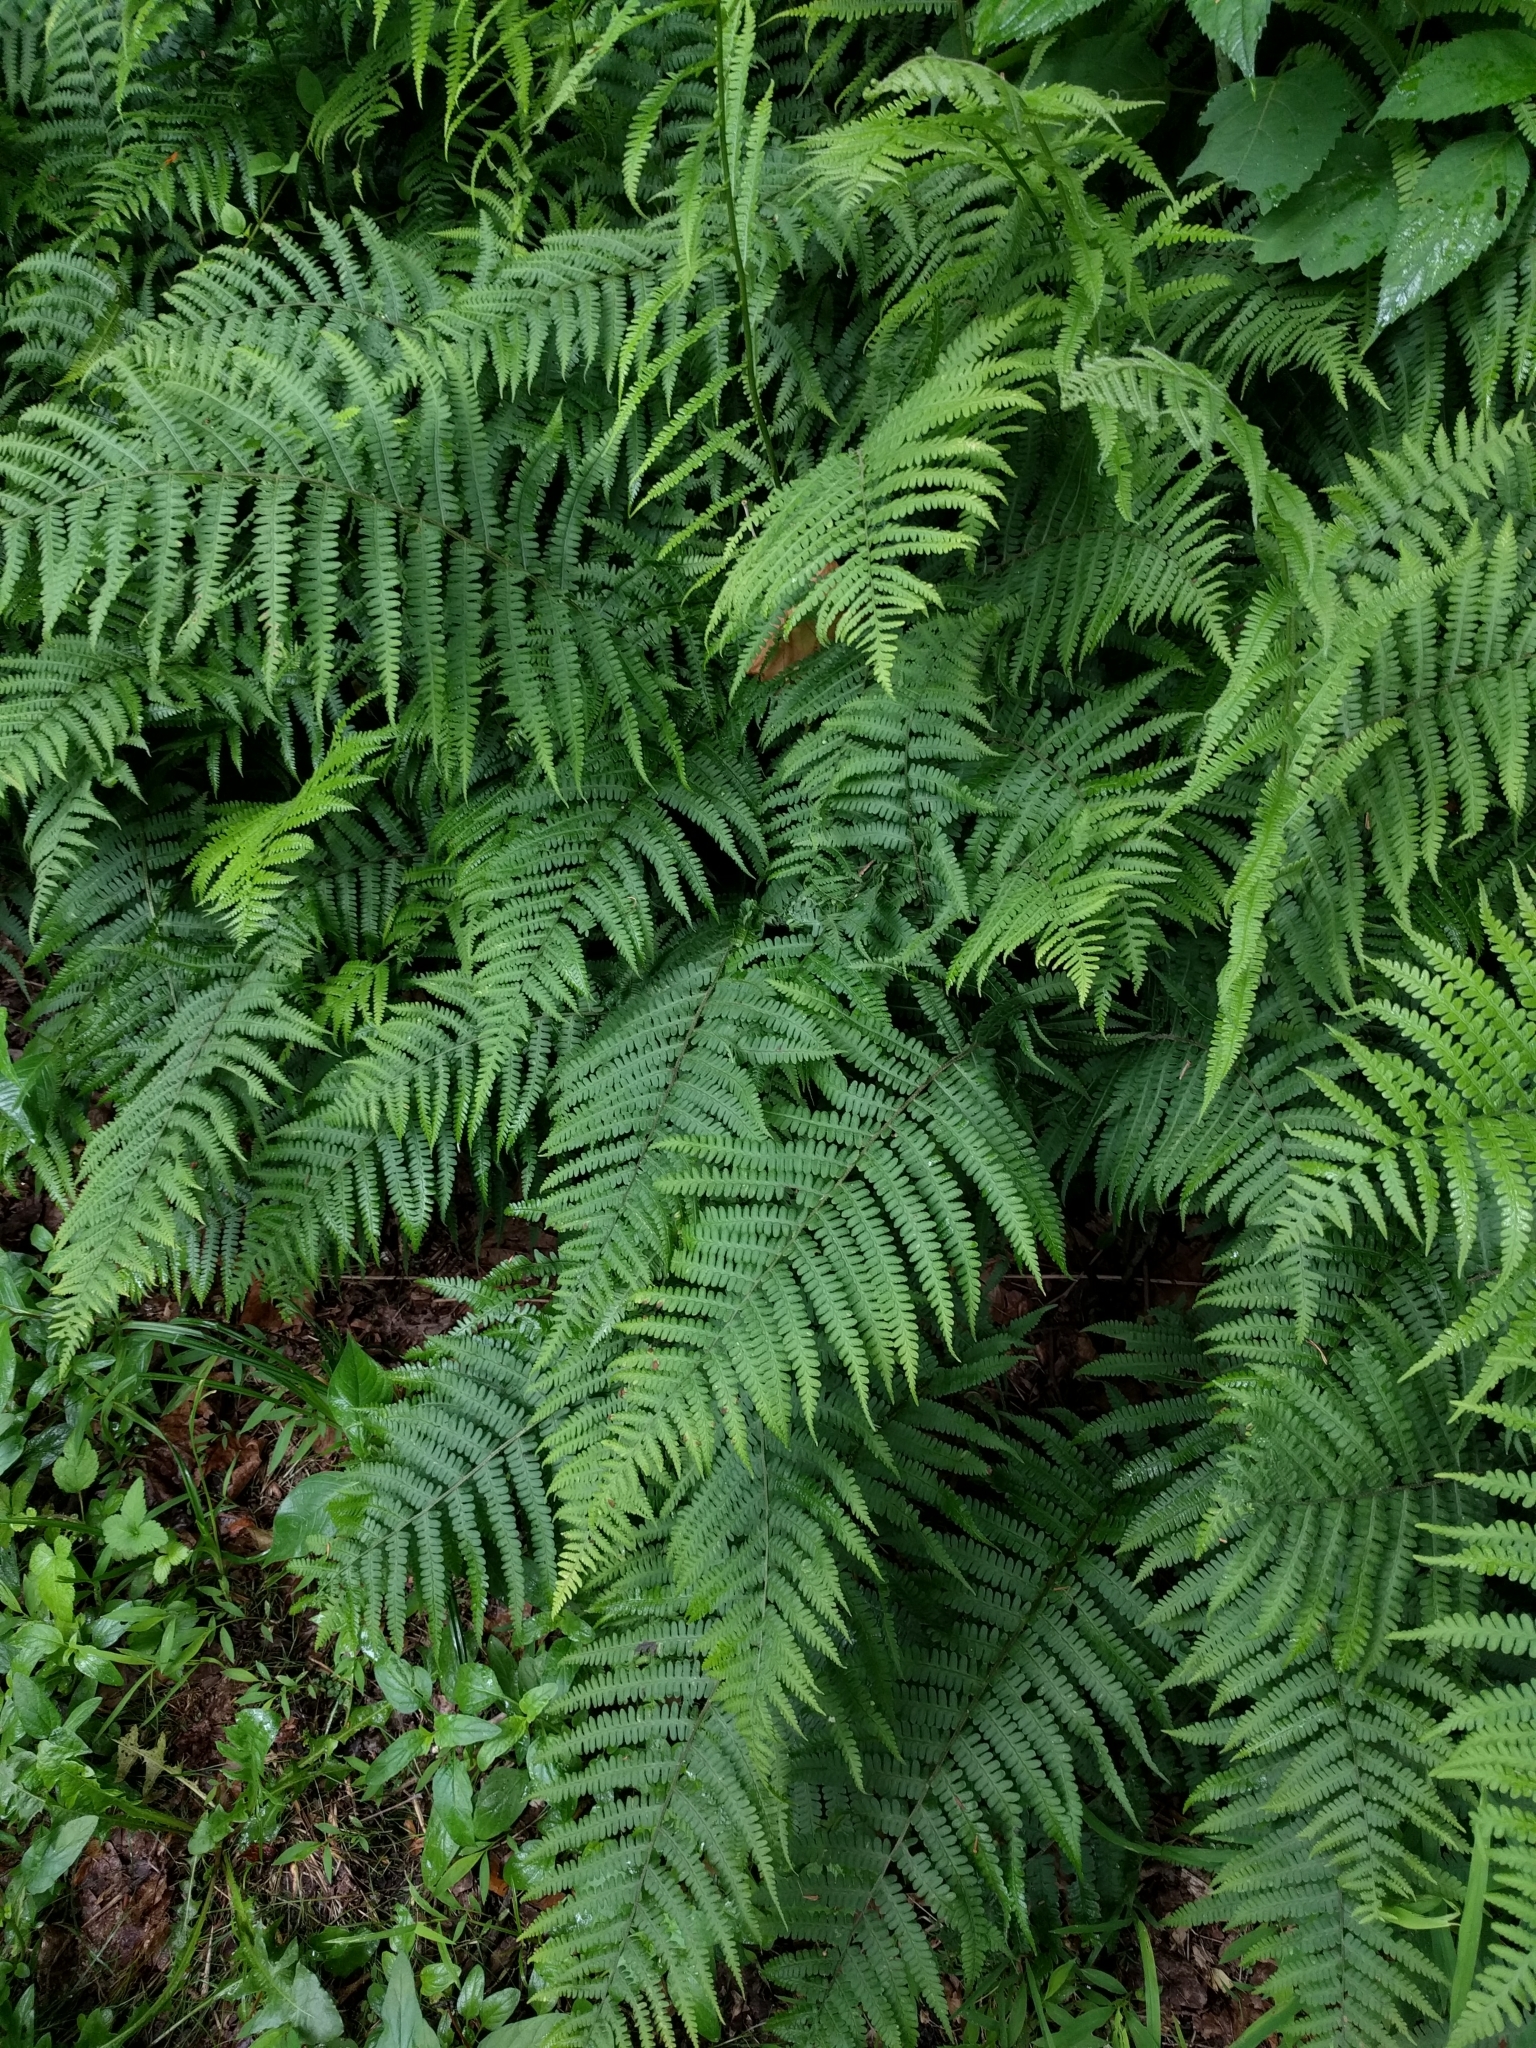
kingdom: Plantae
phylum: Tracheophyta
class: Polypodiopsida
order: Polypodiales
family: Athyriaceae
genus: Deparia
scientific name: Deparia acrostichoides
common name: Silver false spleenwort
